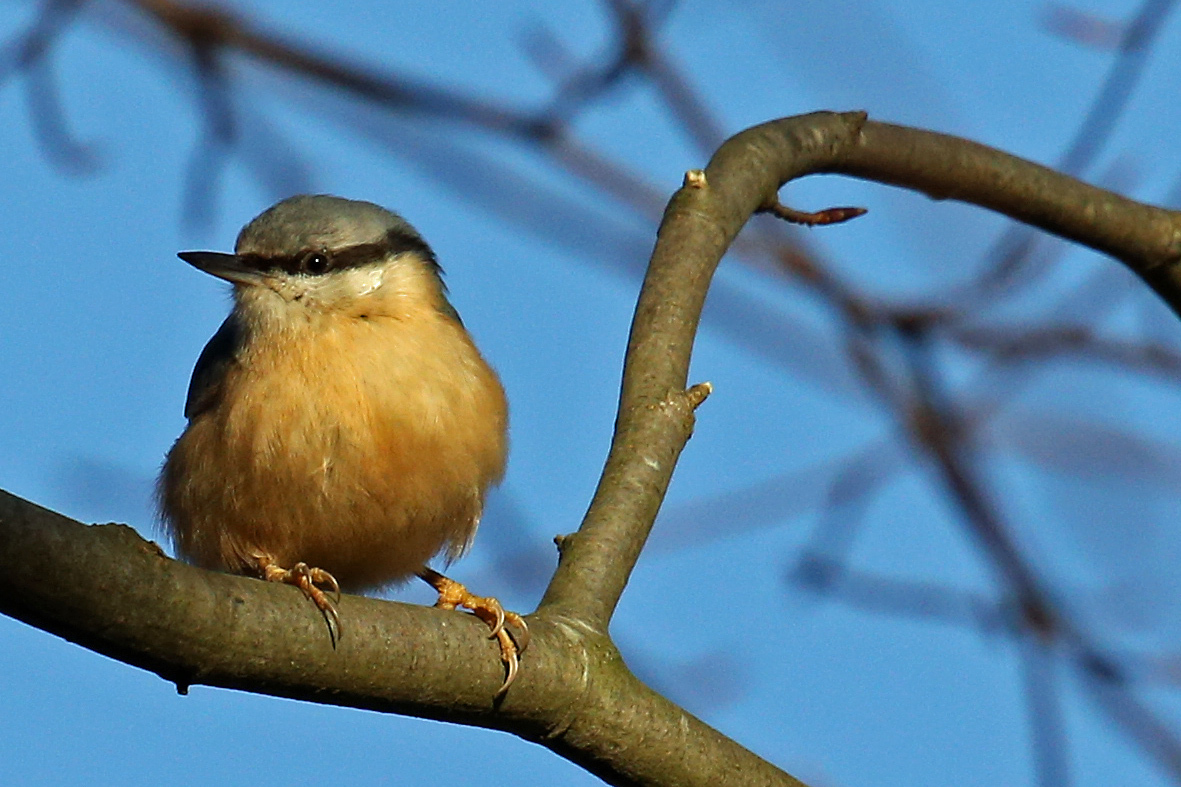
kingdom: Animalia
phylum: Chordata
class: Aves
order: Passeriformes
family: Sittidae
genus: Sitta
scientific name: Sitta europaea
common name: Eurasian nuthatch
